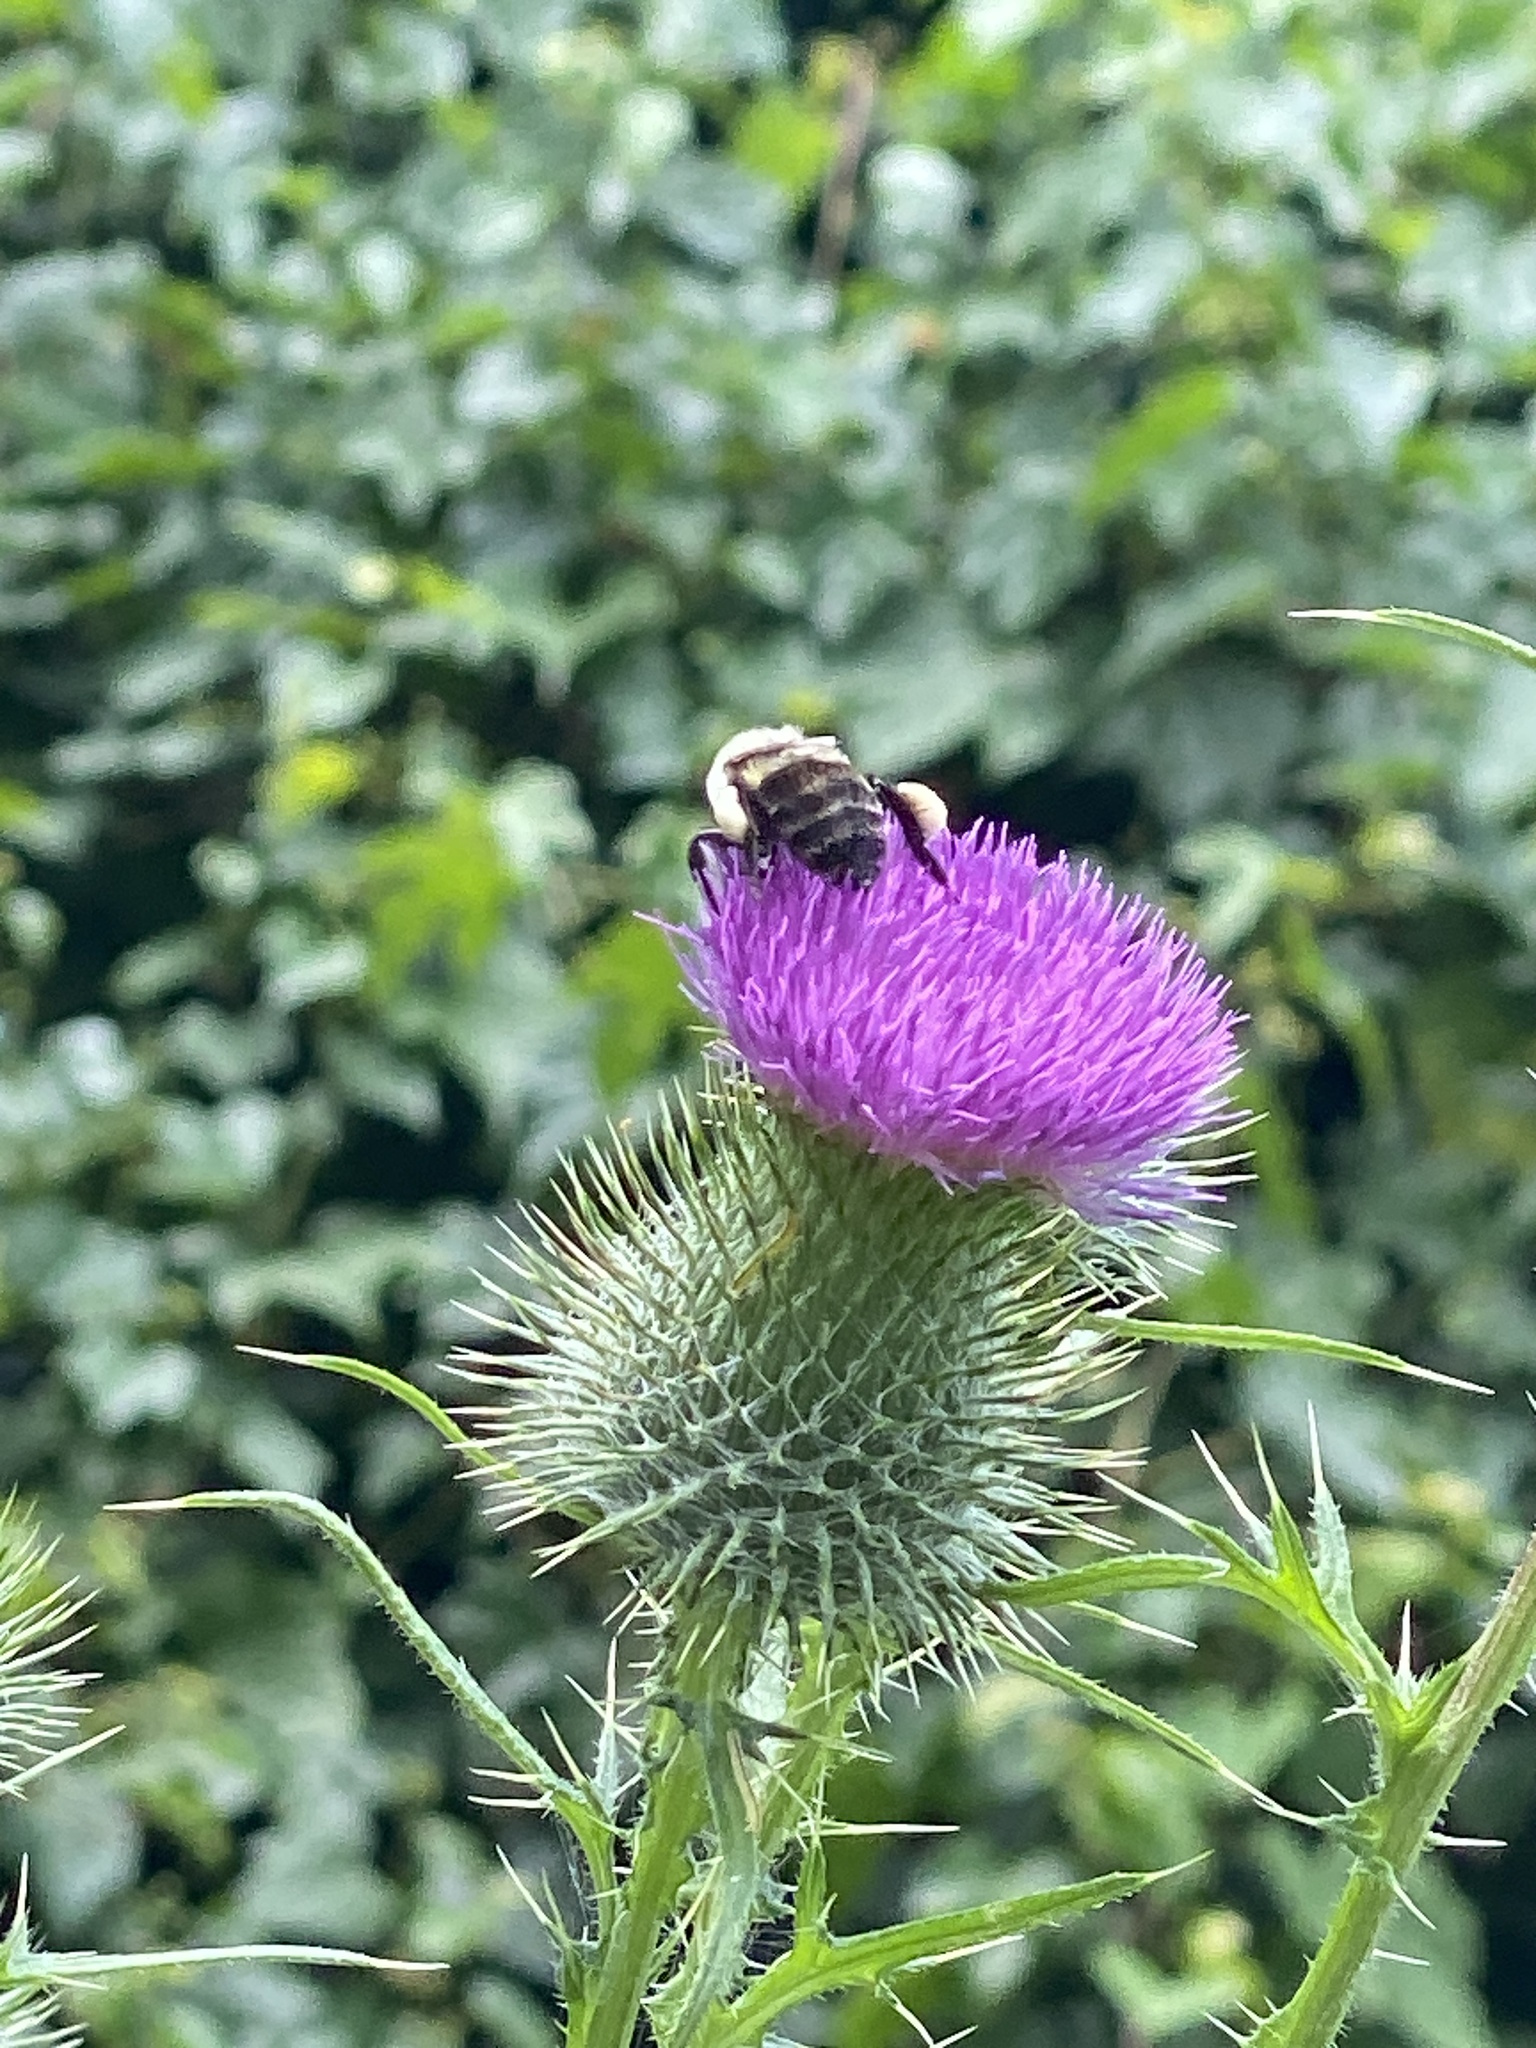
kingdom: Plantae
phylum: Tracheophyta
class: Magnoliopsida
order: Asterales
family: Asteraceae
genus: Cirsium
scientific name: Cirsium vulgare
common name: Bull thistle
